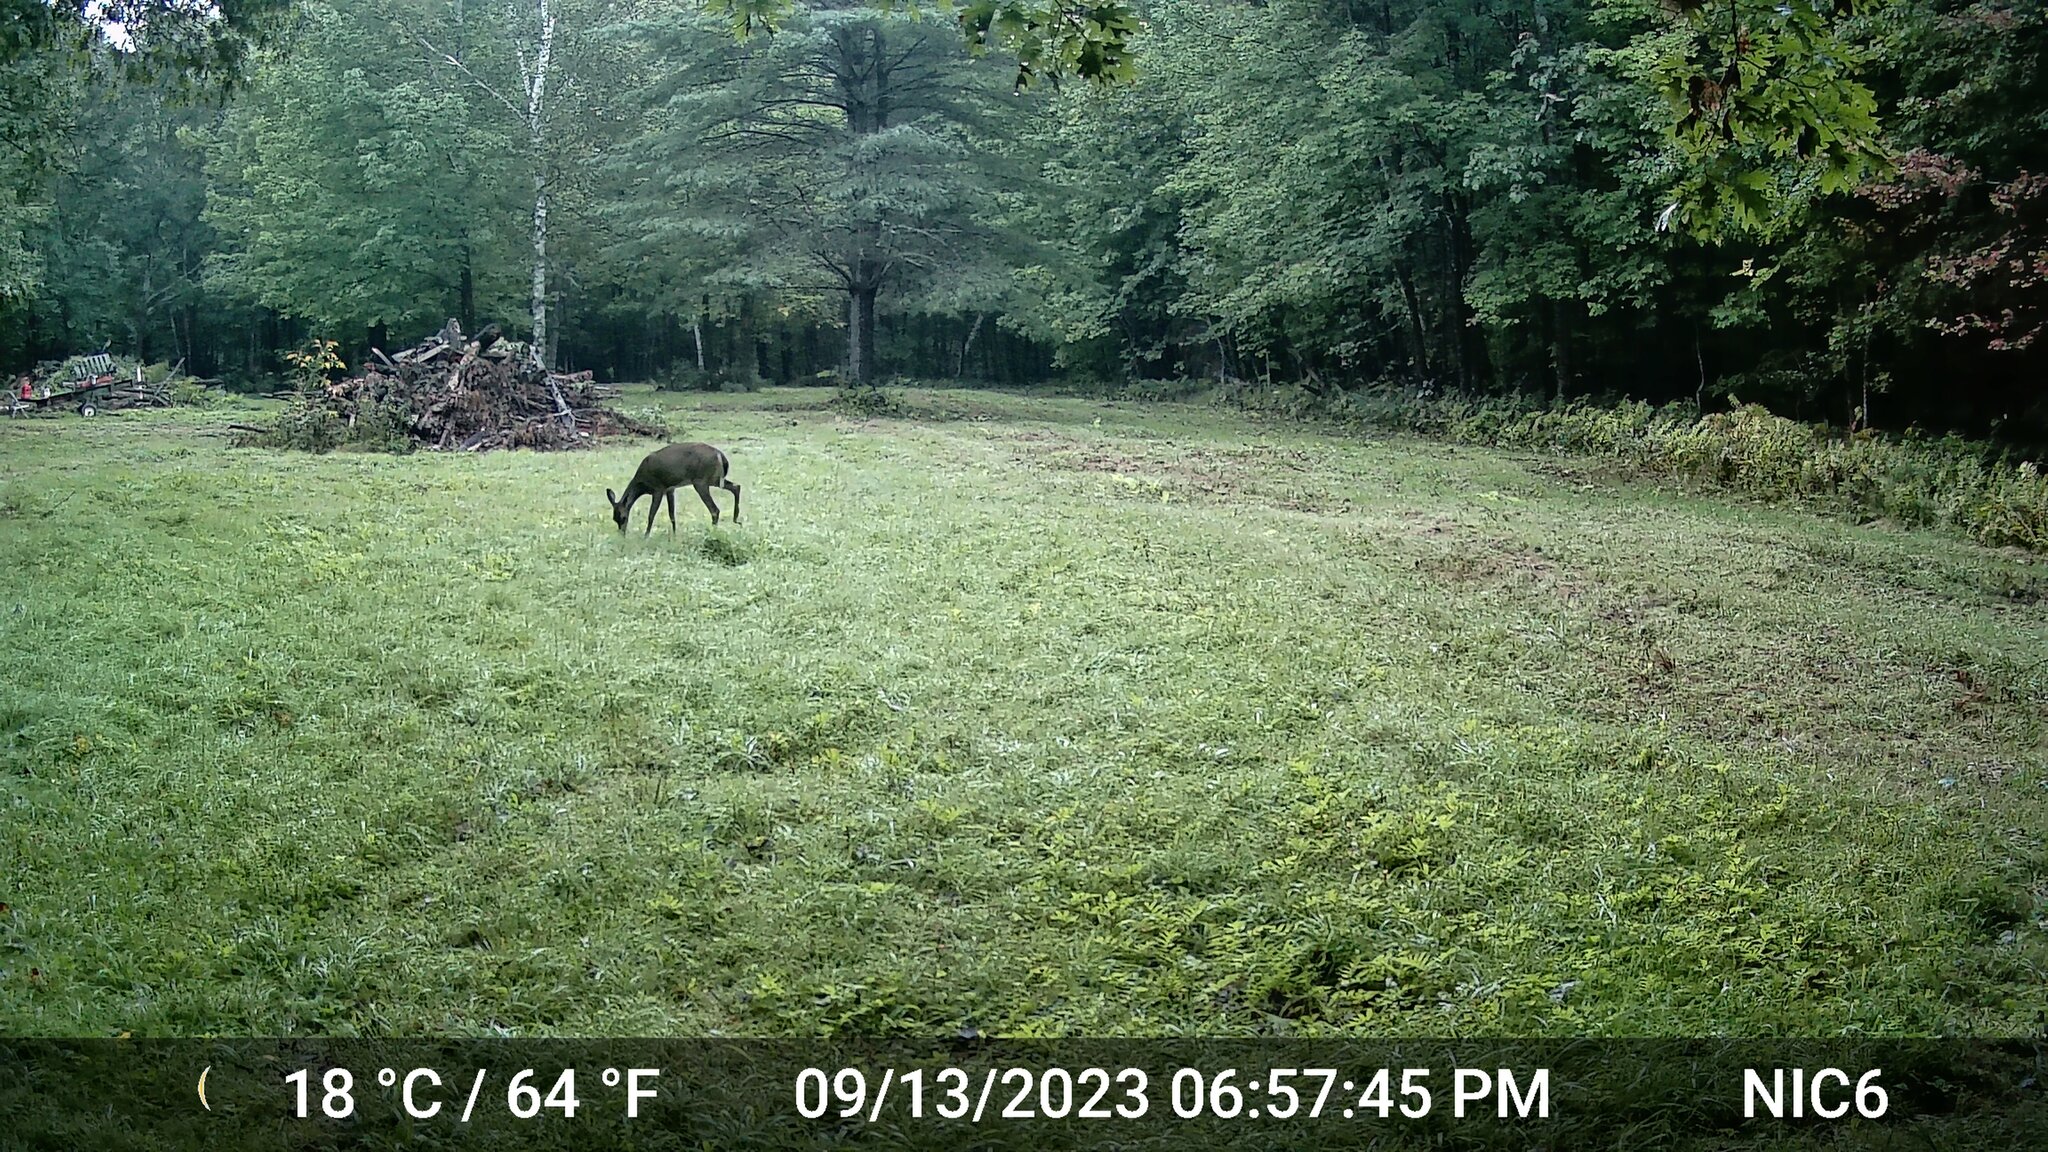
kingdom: Animalia
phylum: Chordata
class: Mammalia
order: Artiodactyla
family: Cervidae
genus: Odocoileus
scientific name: Odocoileus virginianus
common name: White-tailed deer
